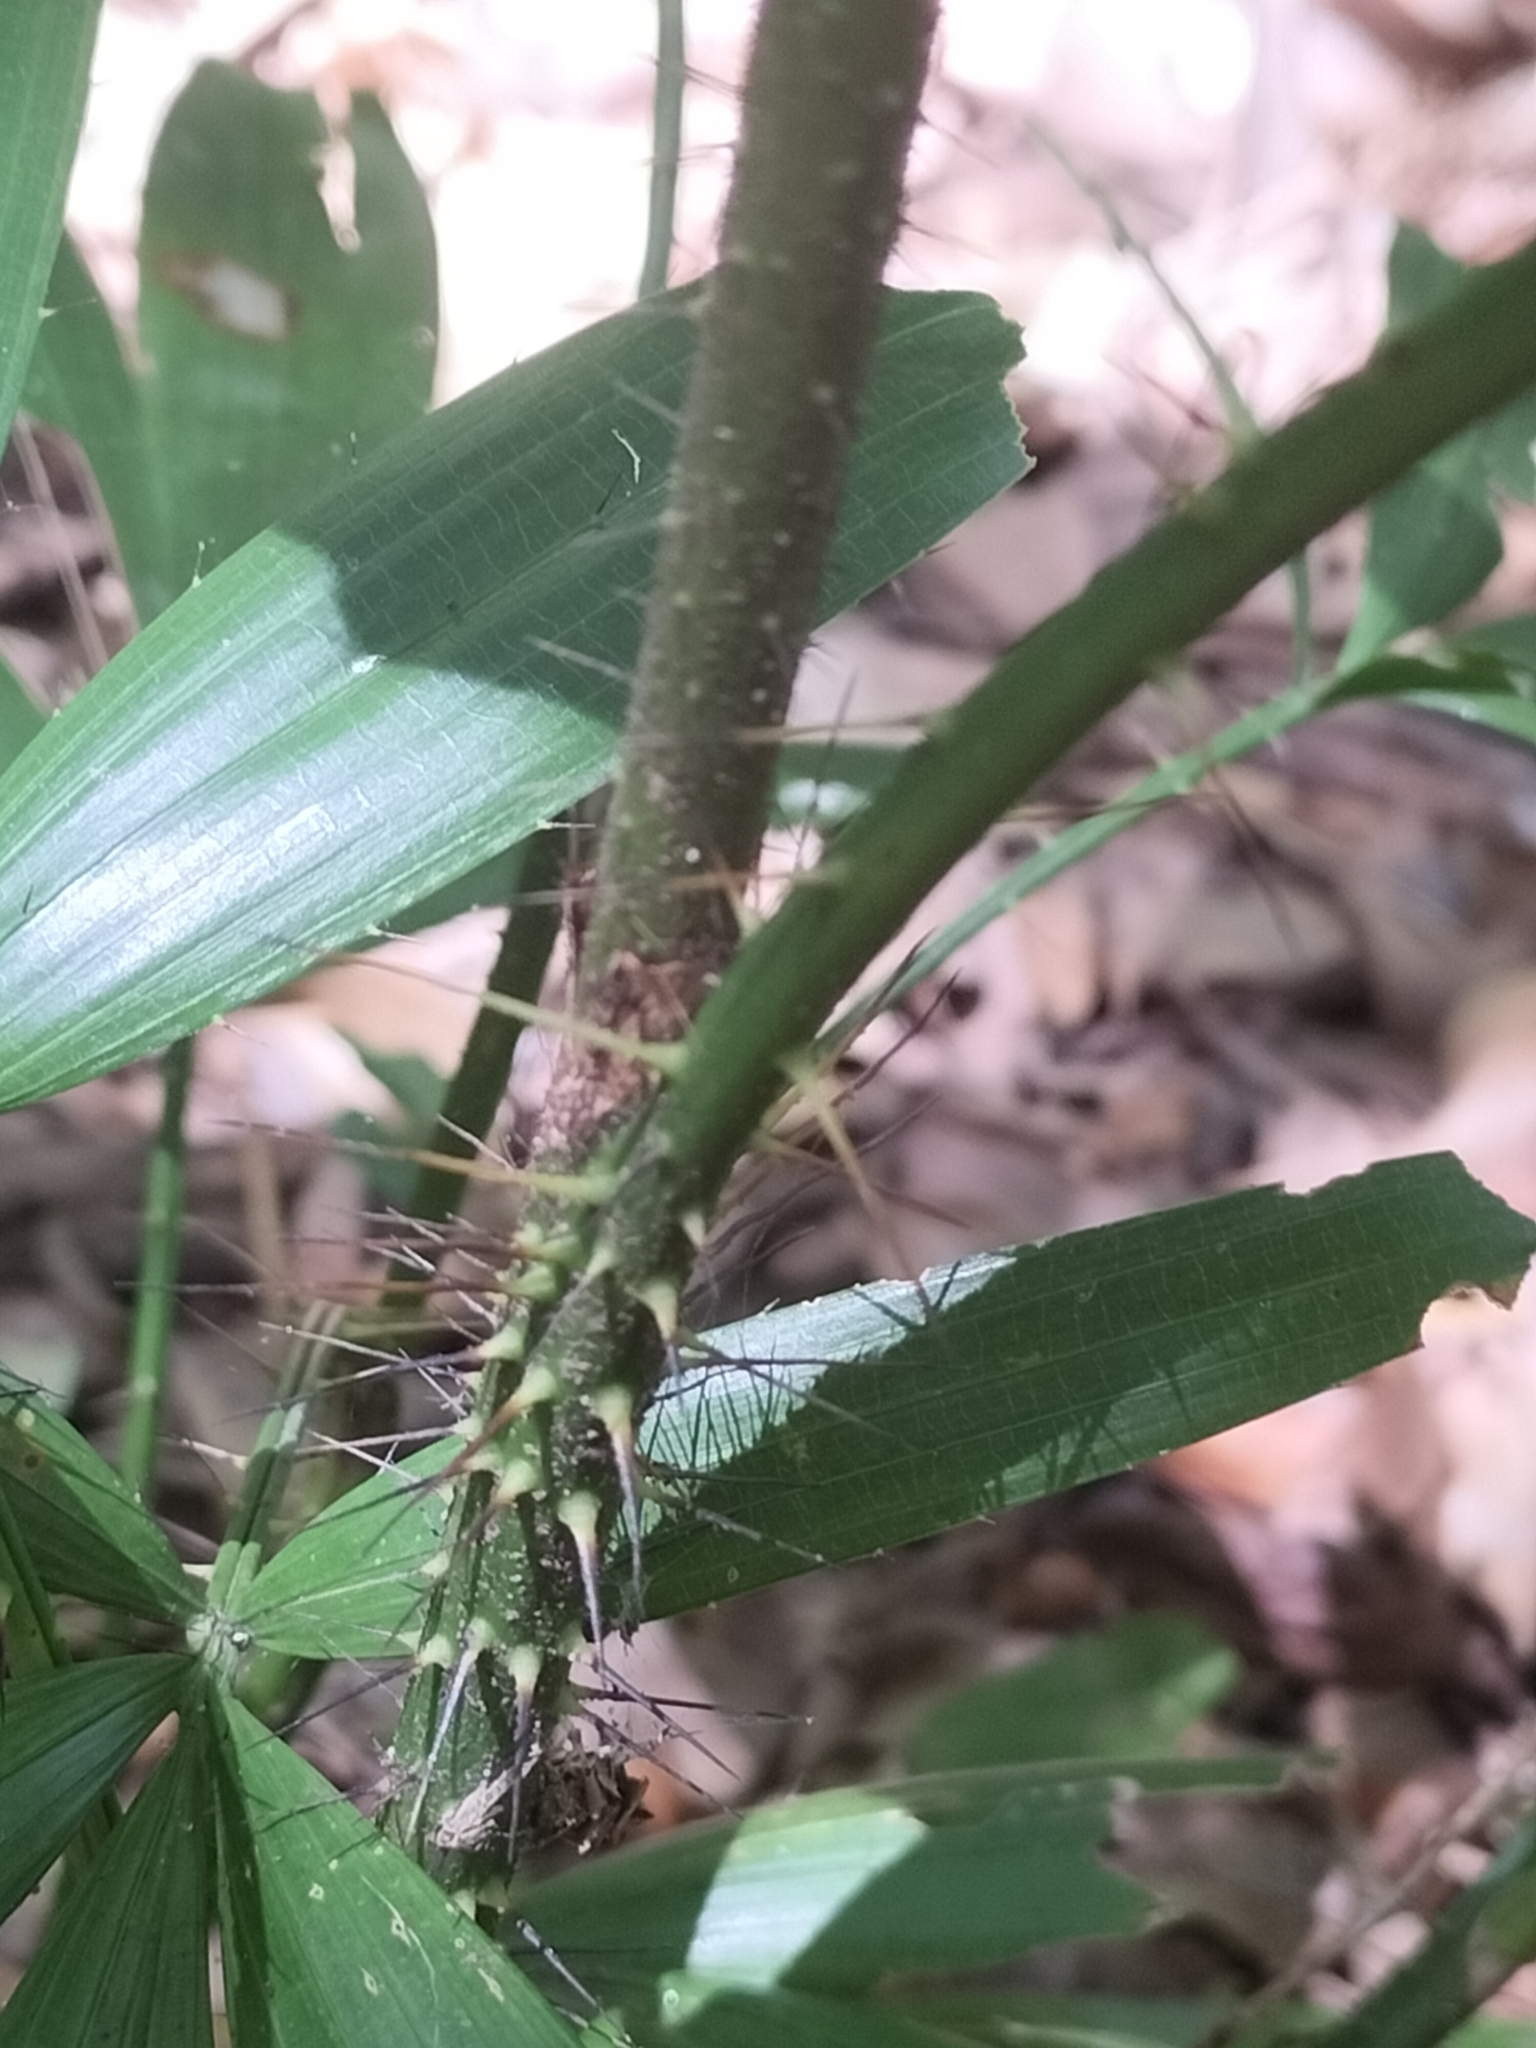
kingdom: Plantae
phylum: Tracheophyta
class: Liliopsida
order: Arecales
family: Arecaceae
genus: Calamus
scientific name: Calamus caryotoides
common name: Fishtail lawyer cane
